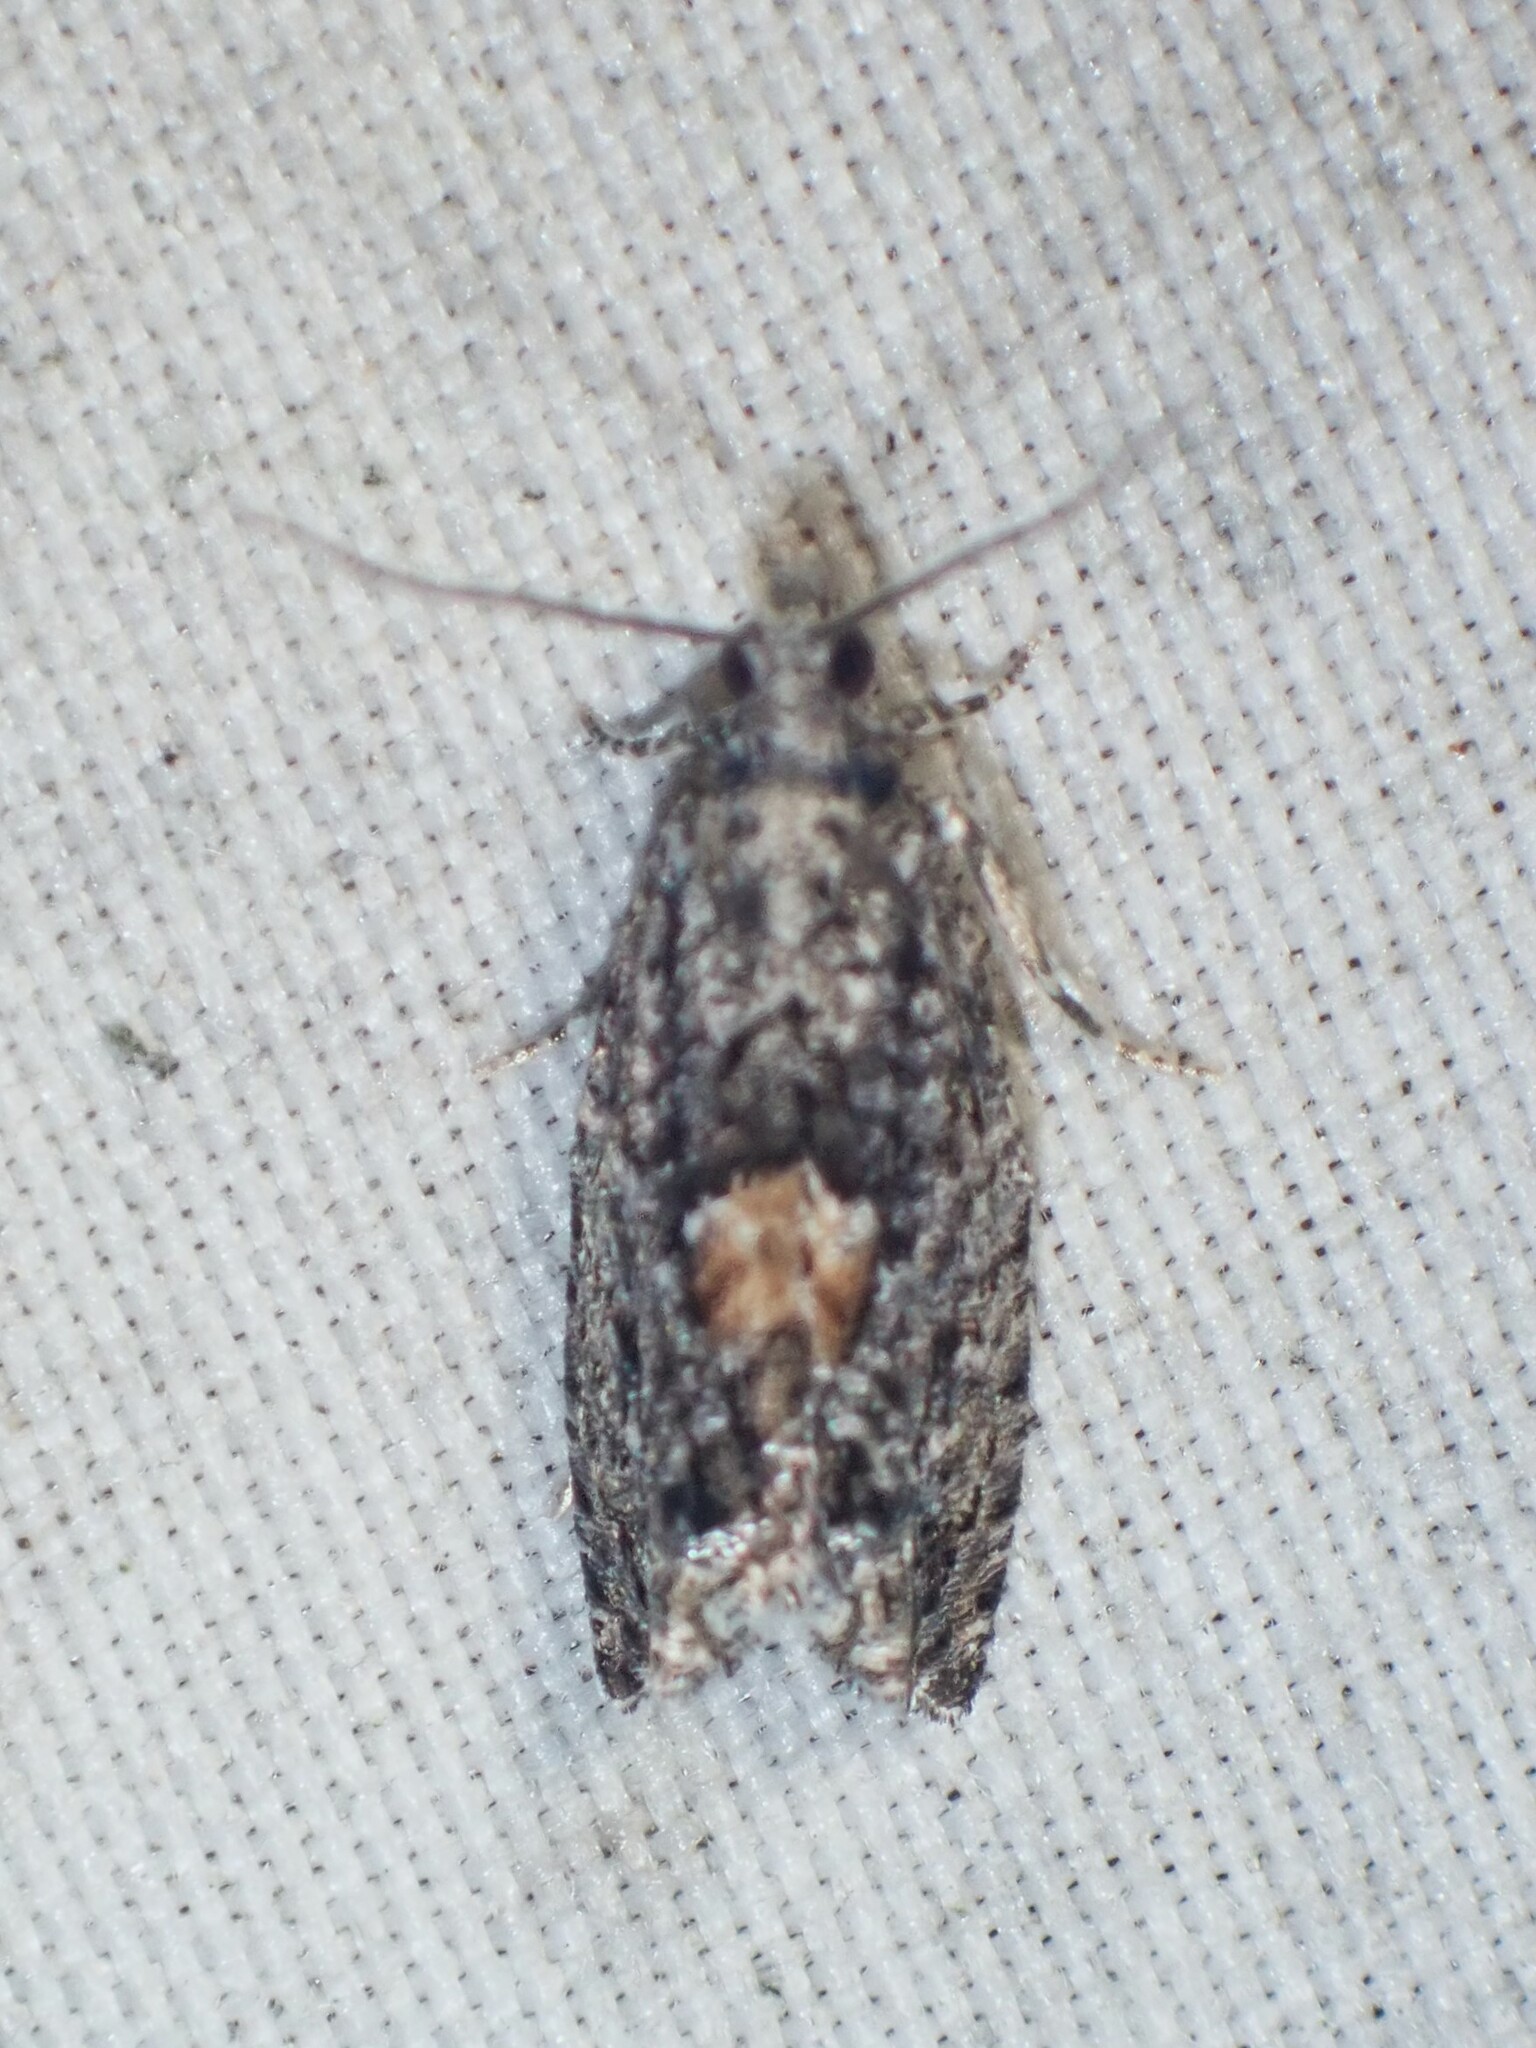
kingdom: Animalia
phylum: Arthropoda
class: Insecta
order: Lepidoptera
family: Tortricidae
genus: Epinotia
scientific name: Epinotia nisella
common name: Grey poplar bell
